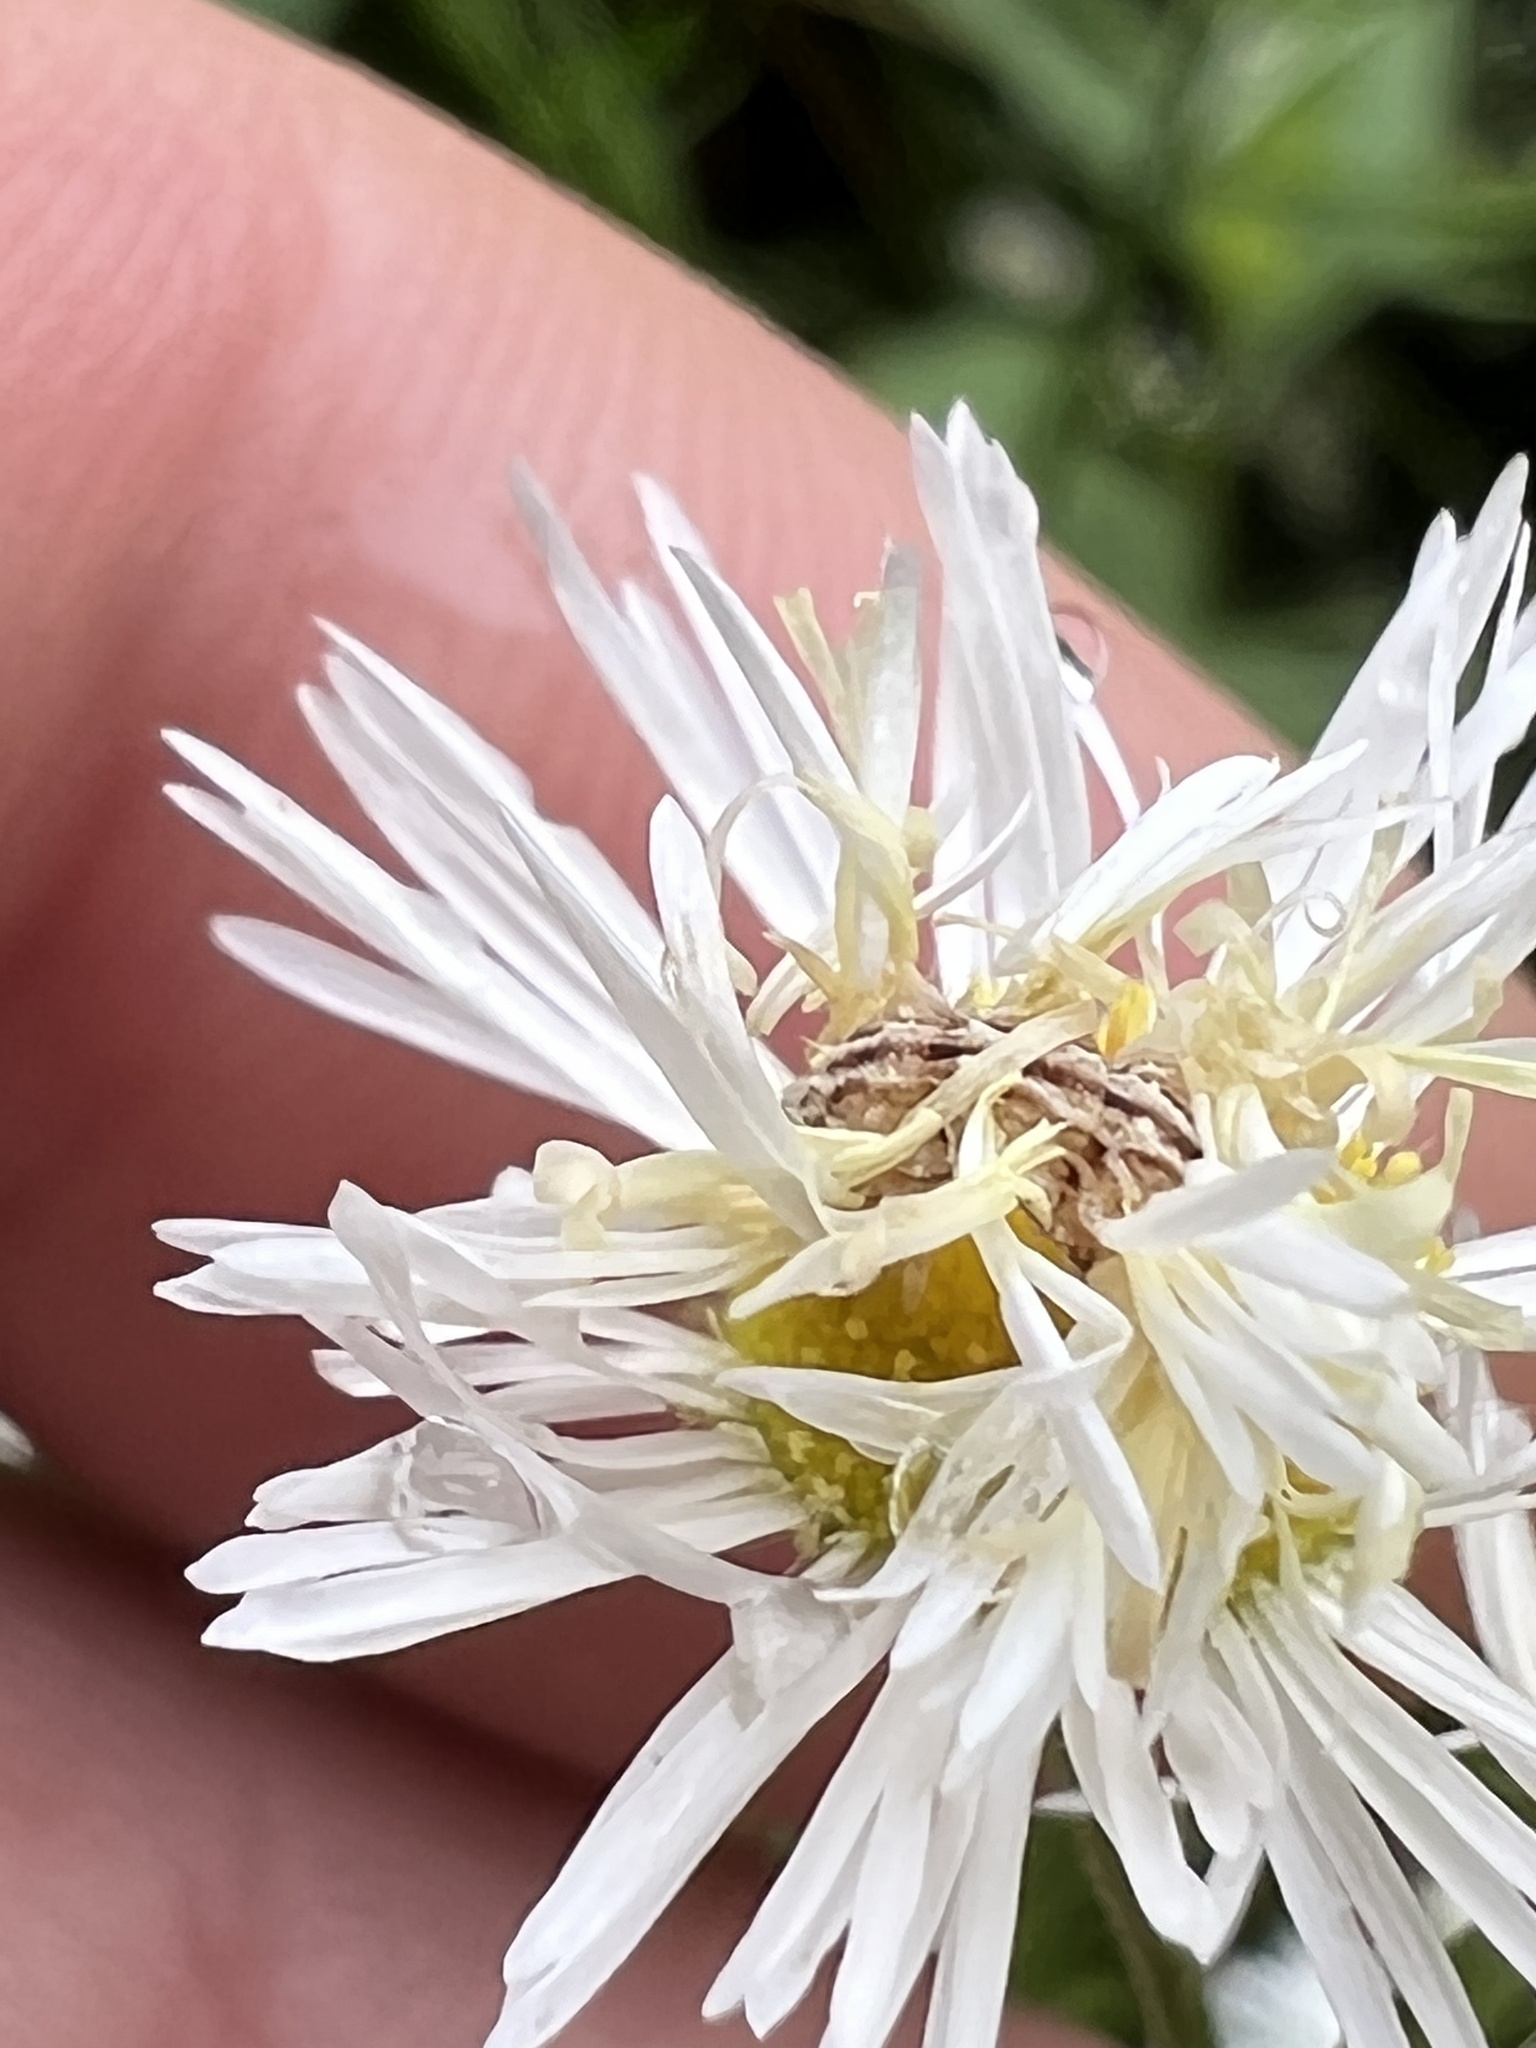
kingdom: Animalia
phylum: Arthropoda
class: Insecta
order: Lepidoptera
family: Geometridae
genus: Synchlora
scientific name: Synchlora
